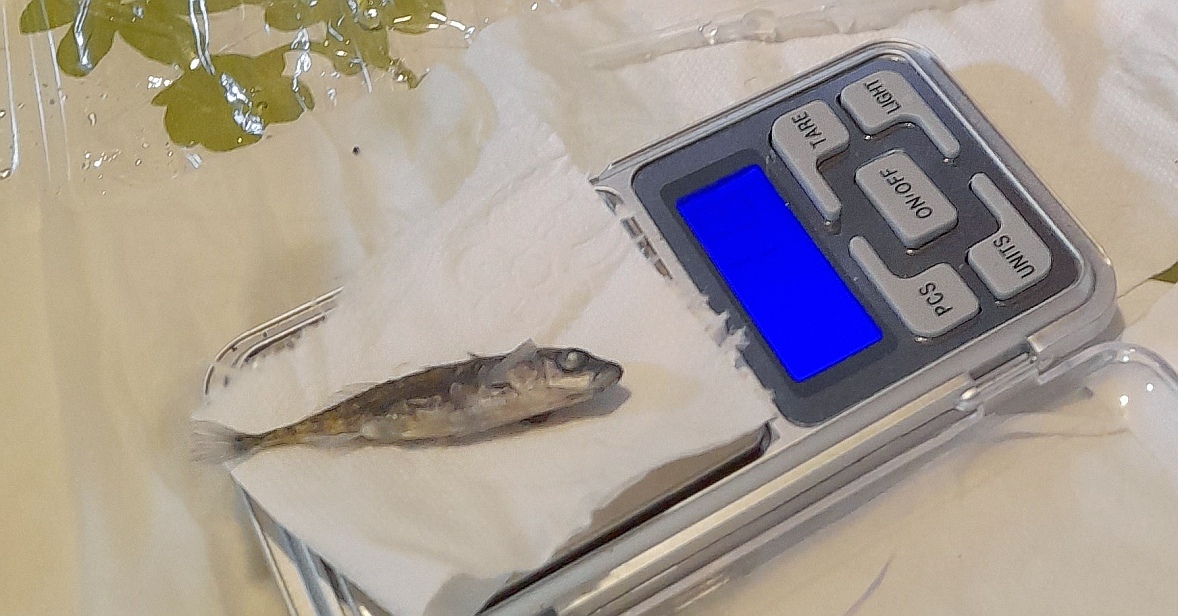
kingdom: Animalia
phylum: Chordata
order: Gasterosteiformes
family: Gasterosteidae
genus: Gasterosteus
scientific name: Gasterosteus aculeatus
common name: Three-spined stickleback
